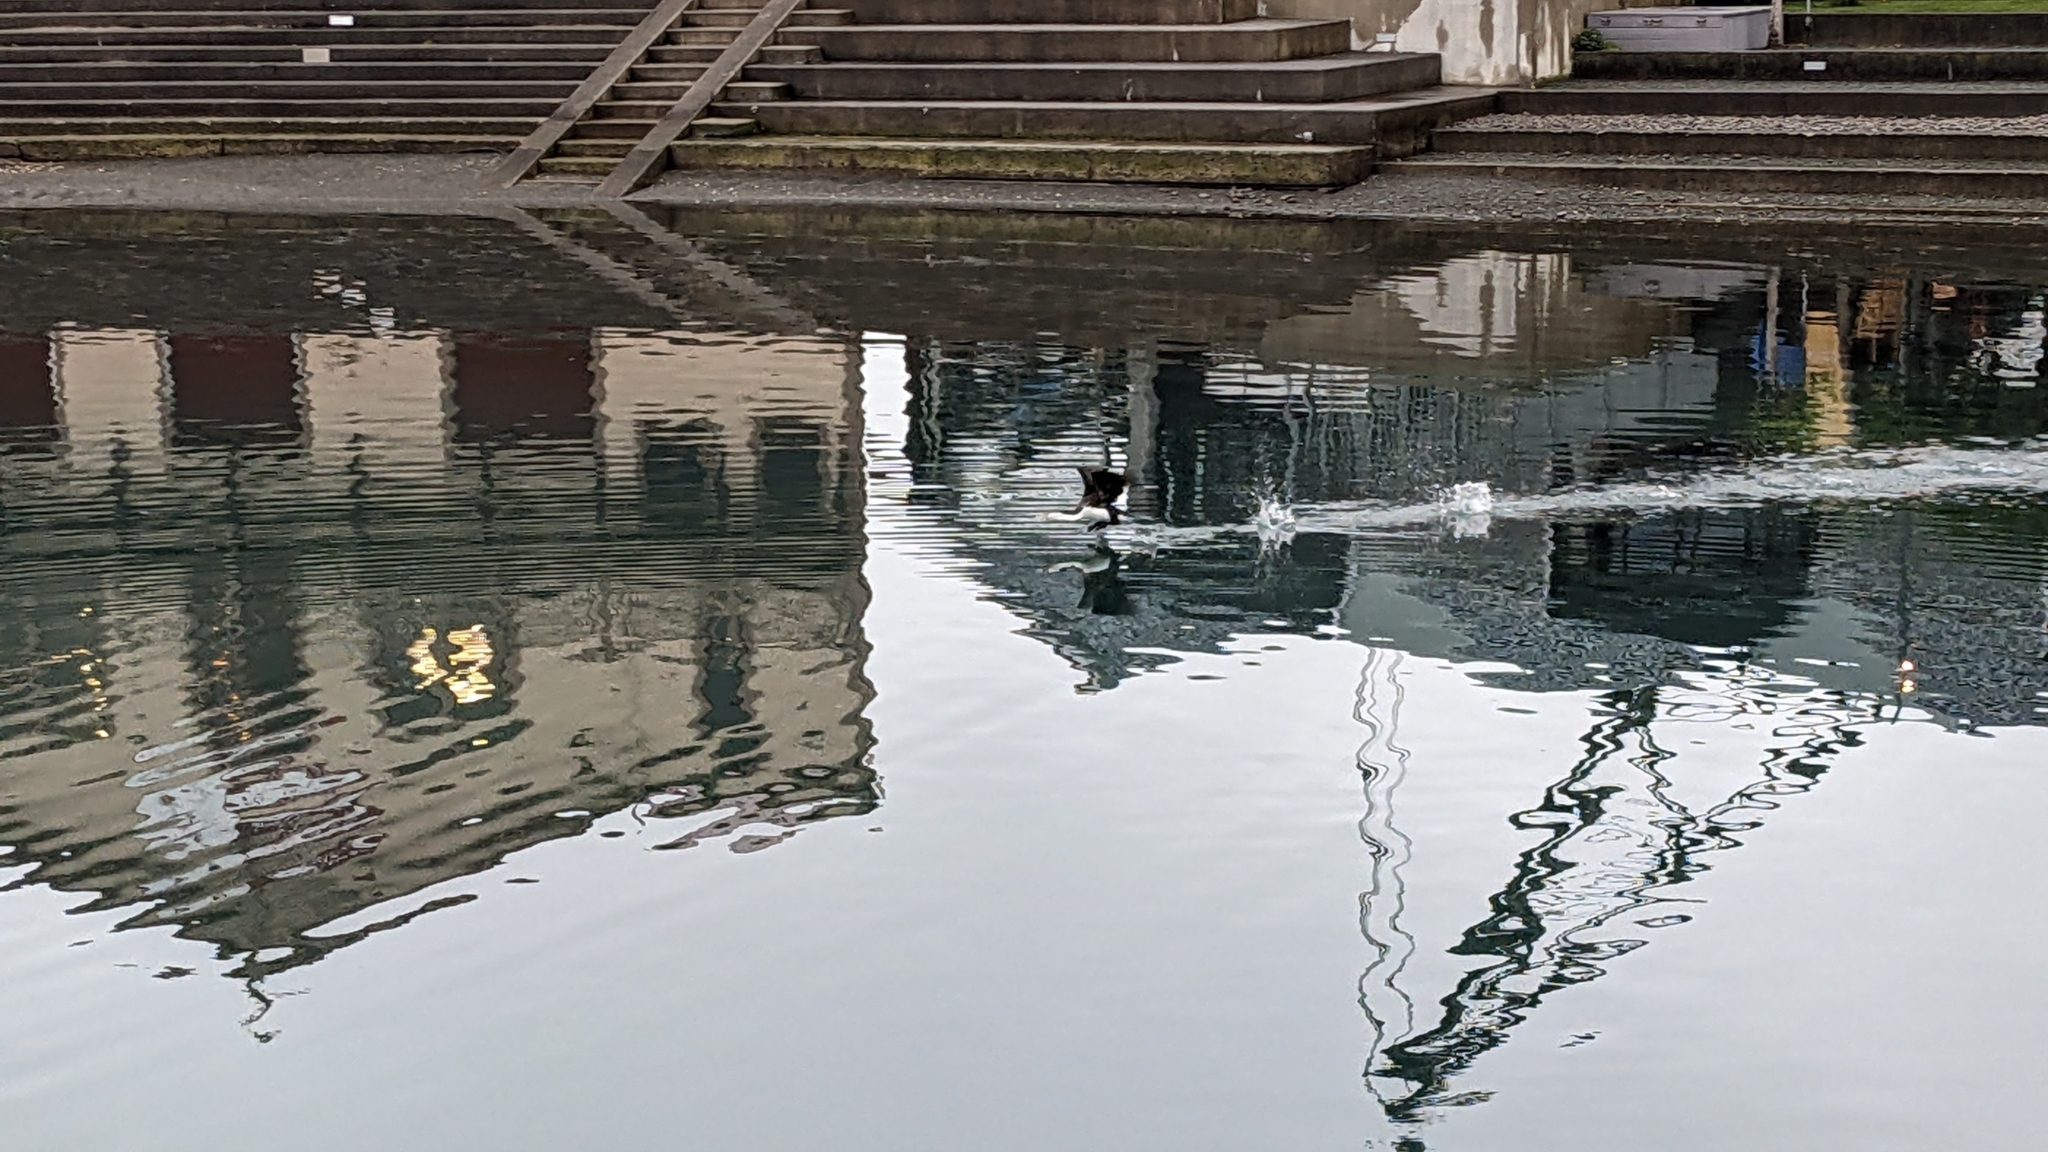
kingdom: Animalia
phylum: Chordata
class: Aves
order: Suliformes
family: Phalacrocoracidae
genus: Phalacrocorax
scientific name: Phalacrocorax varius
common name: Pied cormorant
